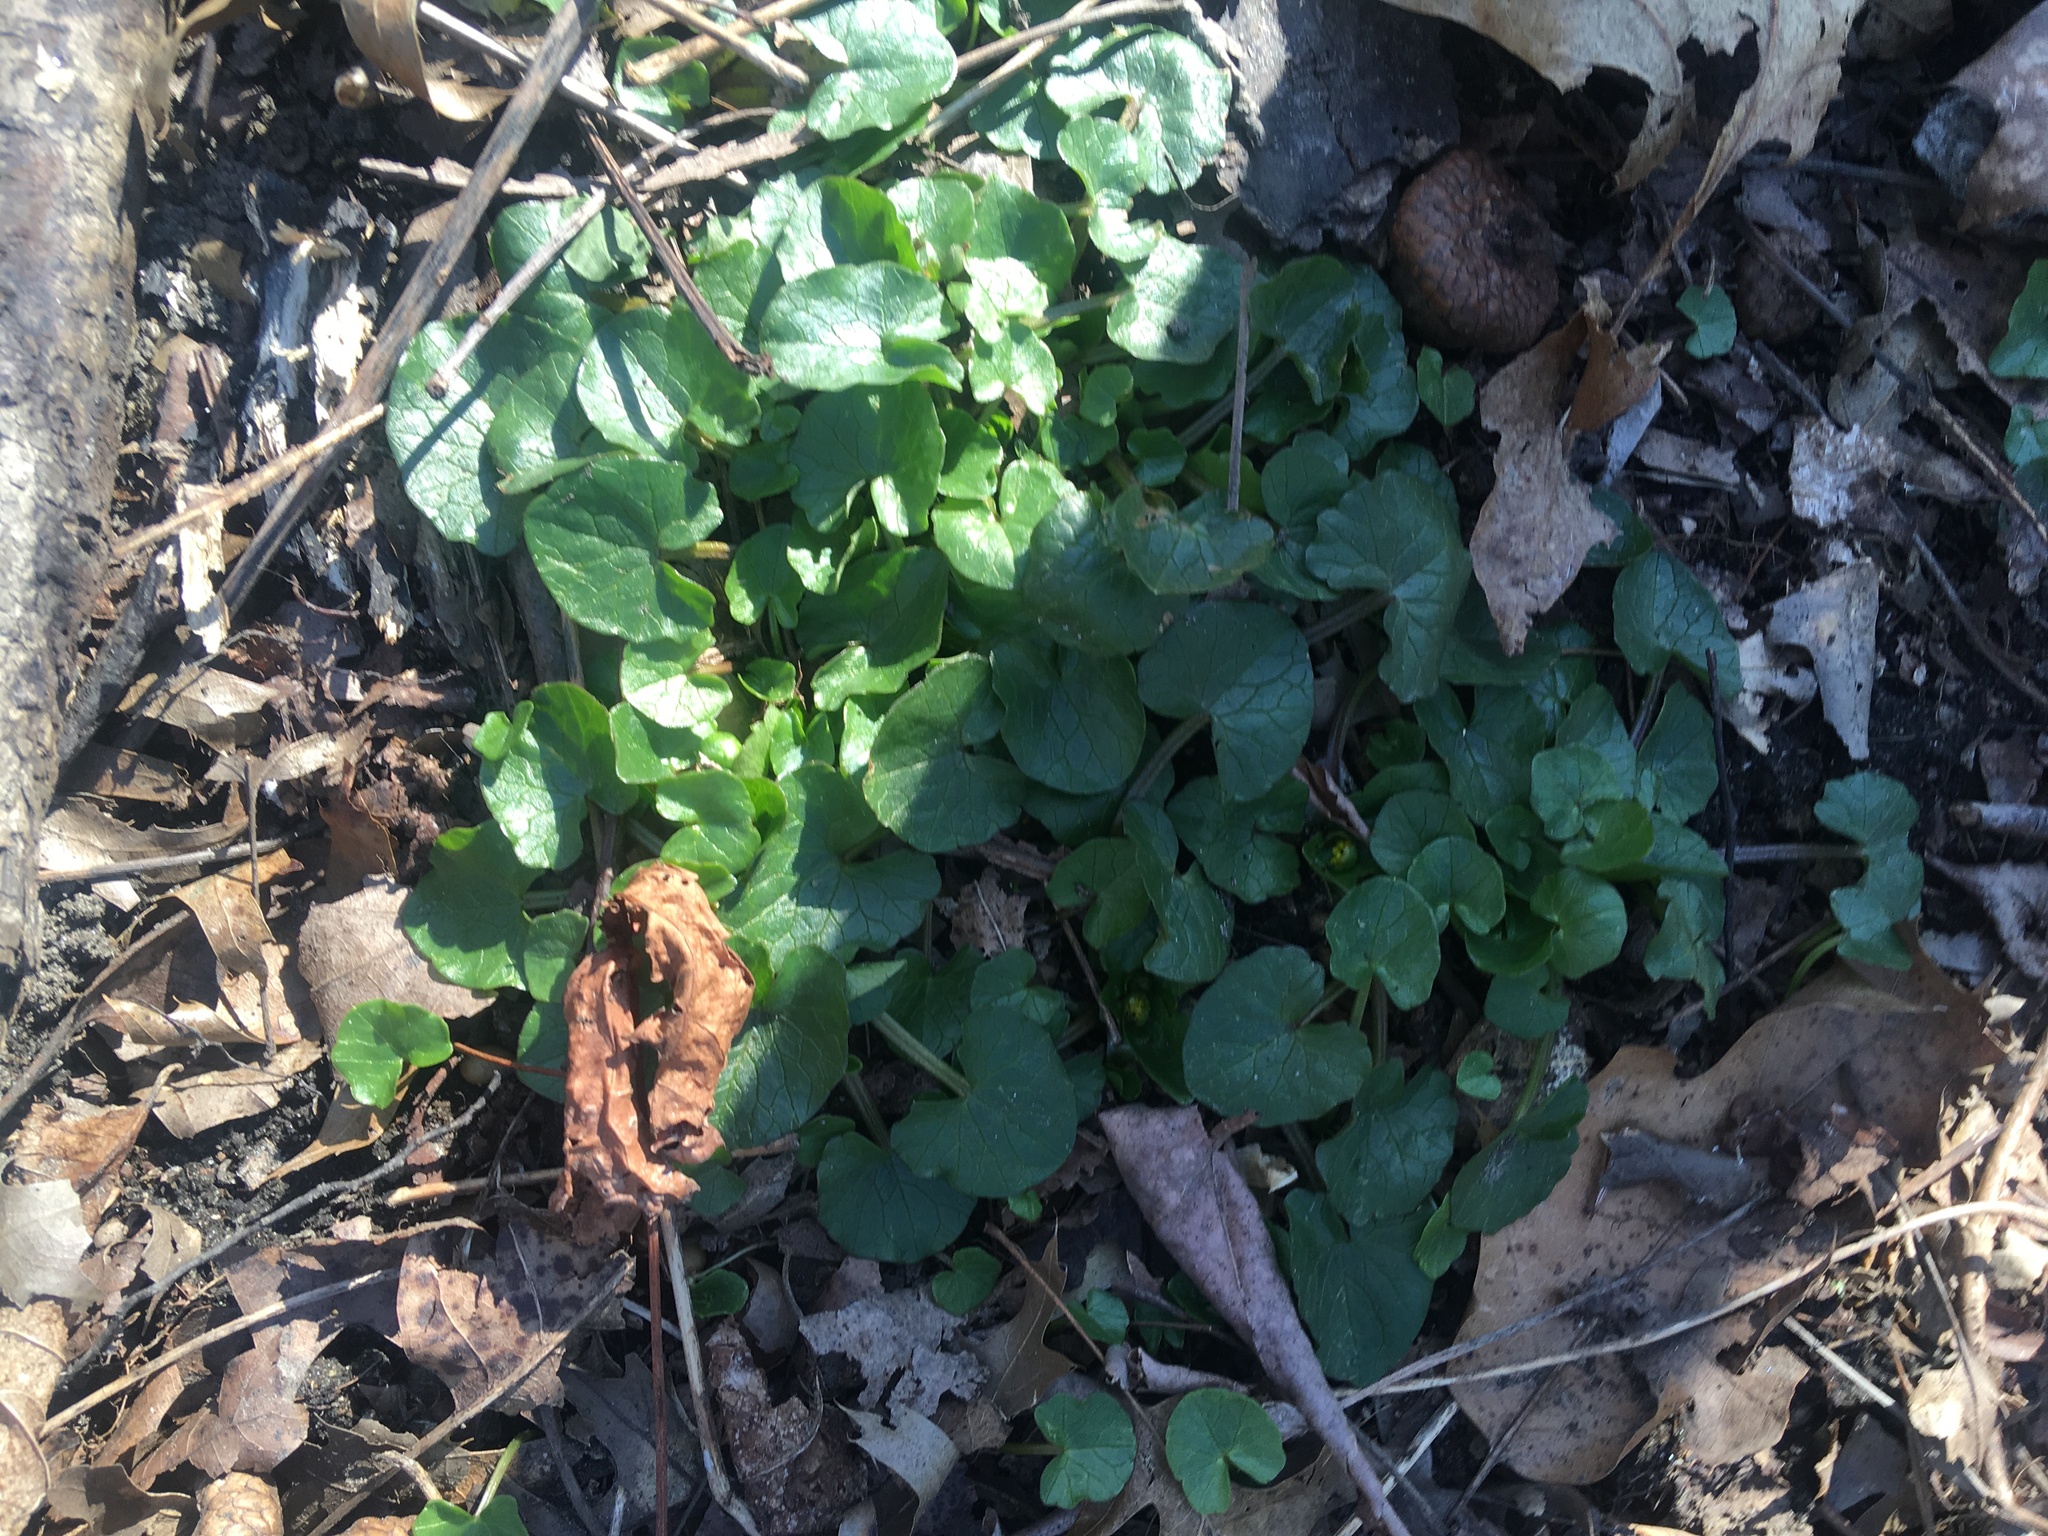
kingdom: Plantae
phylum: Tracheophyta
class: Magnoliopsida
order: Ranunculales
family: Ranunculaceae
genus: Ficaria
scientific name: Ficaria verna
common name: Lesser celandine
